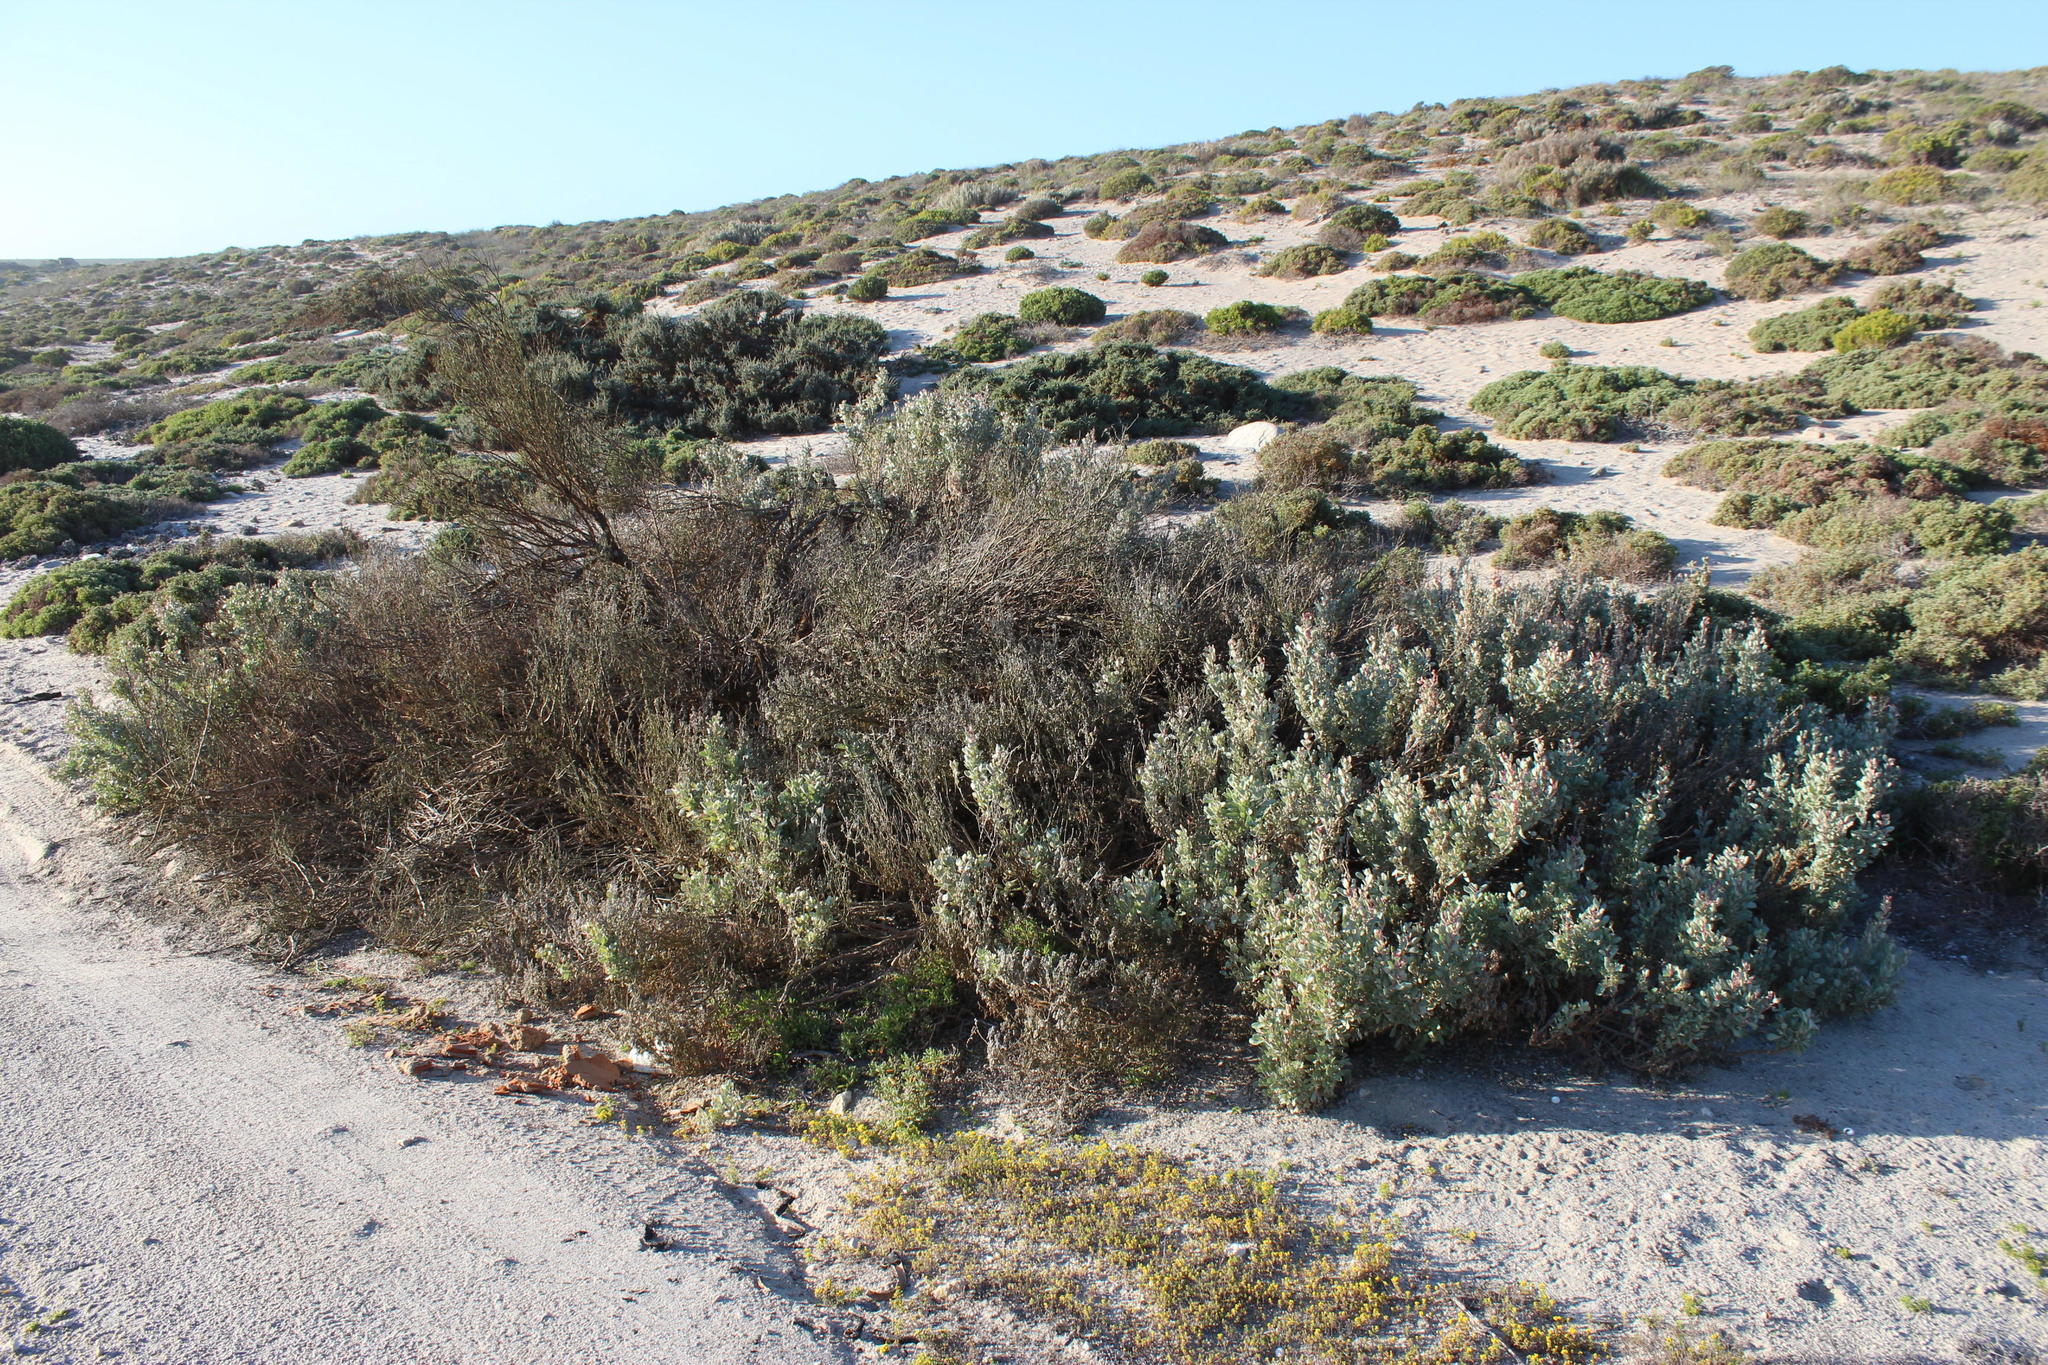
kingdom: Plantae
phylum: Tracheophyta
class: Magnoliopsida
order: Caryophyllales
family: Amaranthaceae
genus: Atriplex
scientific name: Atriplex vestita
